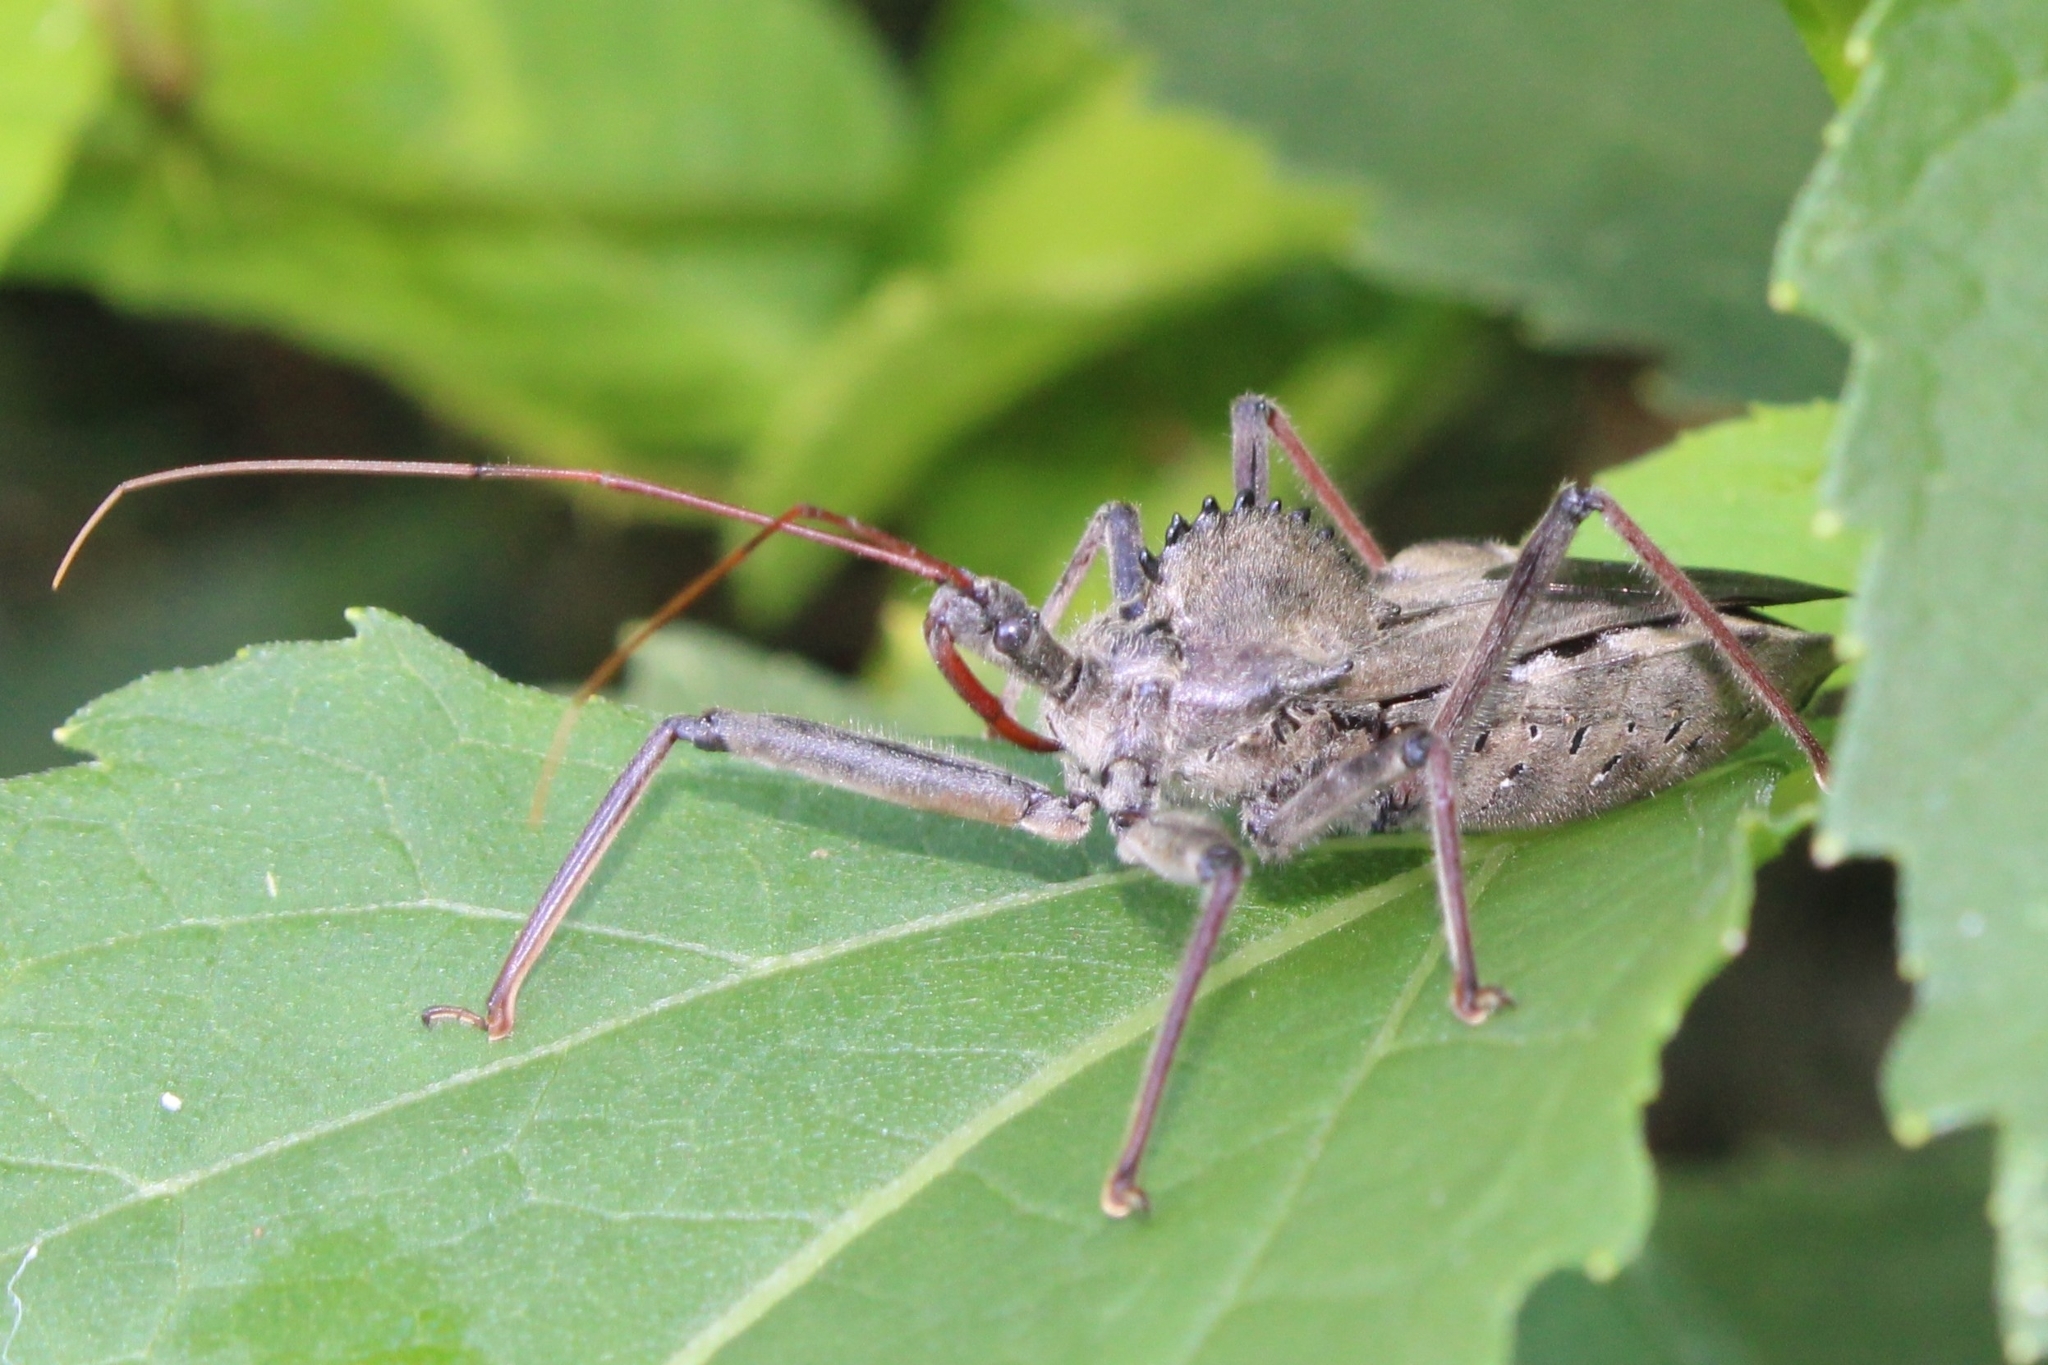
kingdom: Animalia
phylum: Arthropoda
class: Insecta
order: Hemiptera
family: Reduviidae
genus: Arilus
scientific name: Arilus cristatus
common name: North american wheel bug
